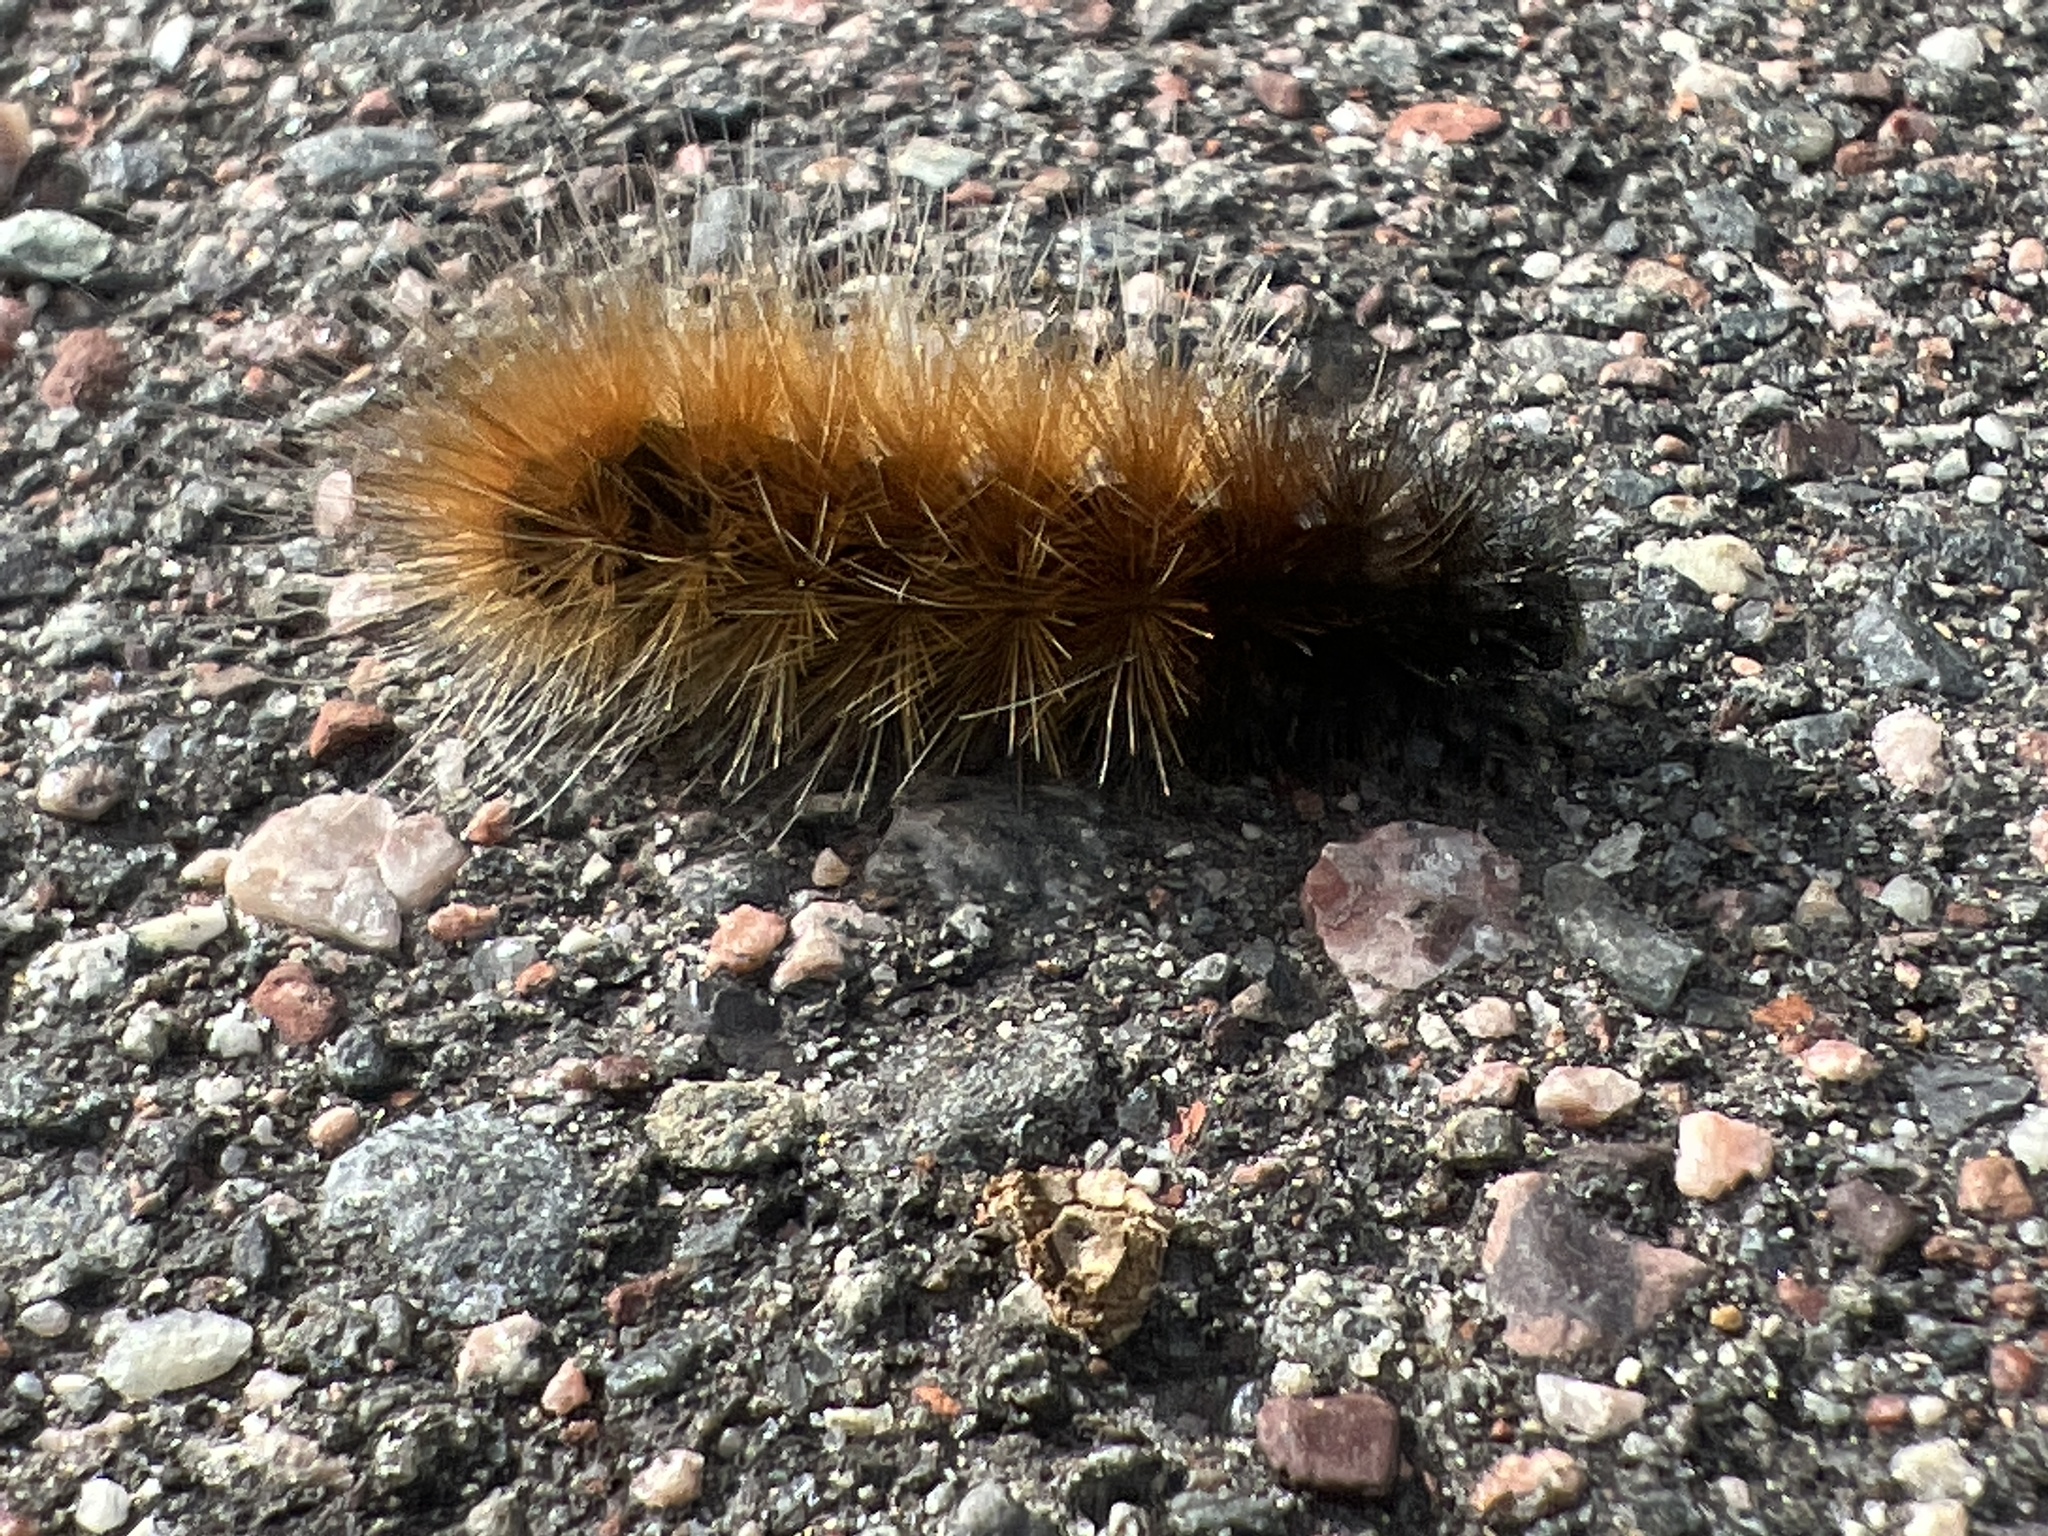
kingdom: Animalia
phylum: Arthropoda
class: Insecta
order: Lepidoptera
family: Erebidae
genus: Pyrrharctia
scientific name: Pyrrharctia isabella
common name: Isabella tiger moth
